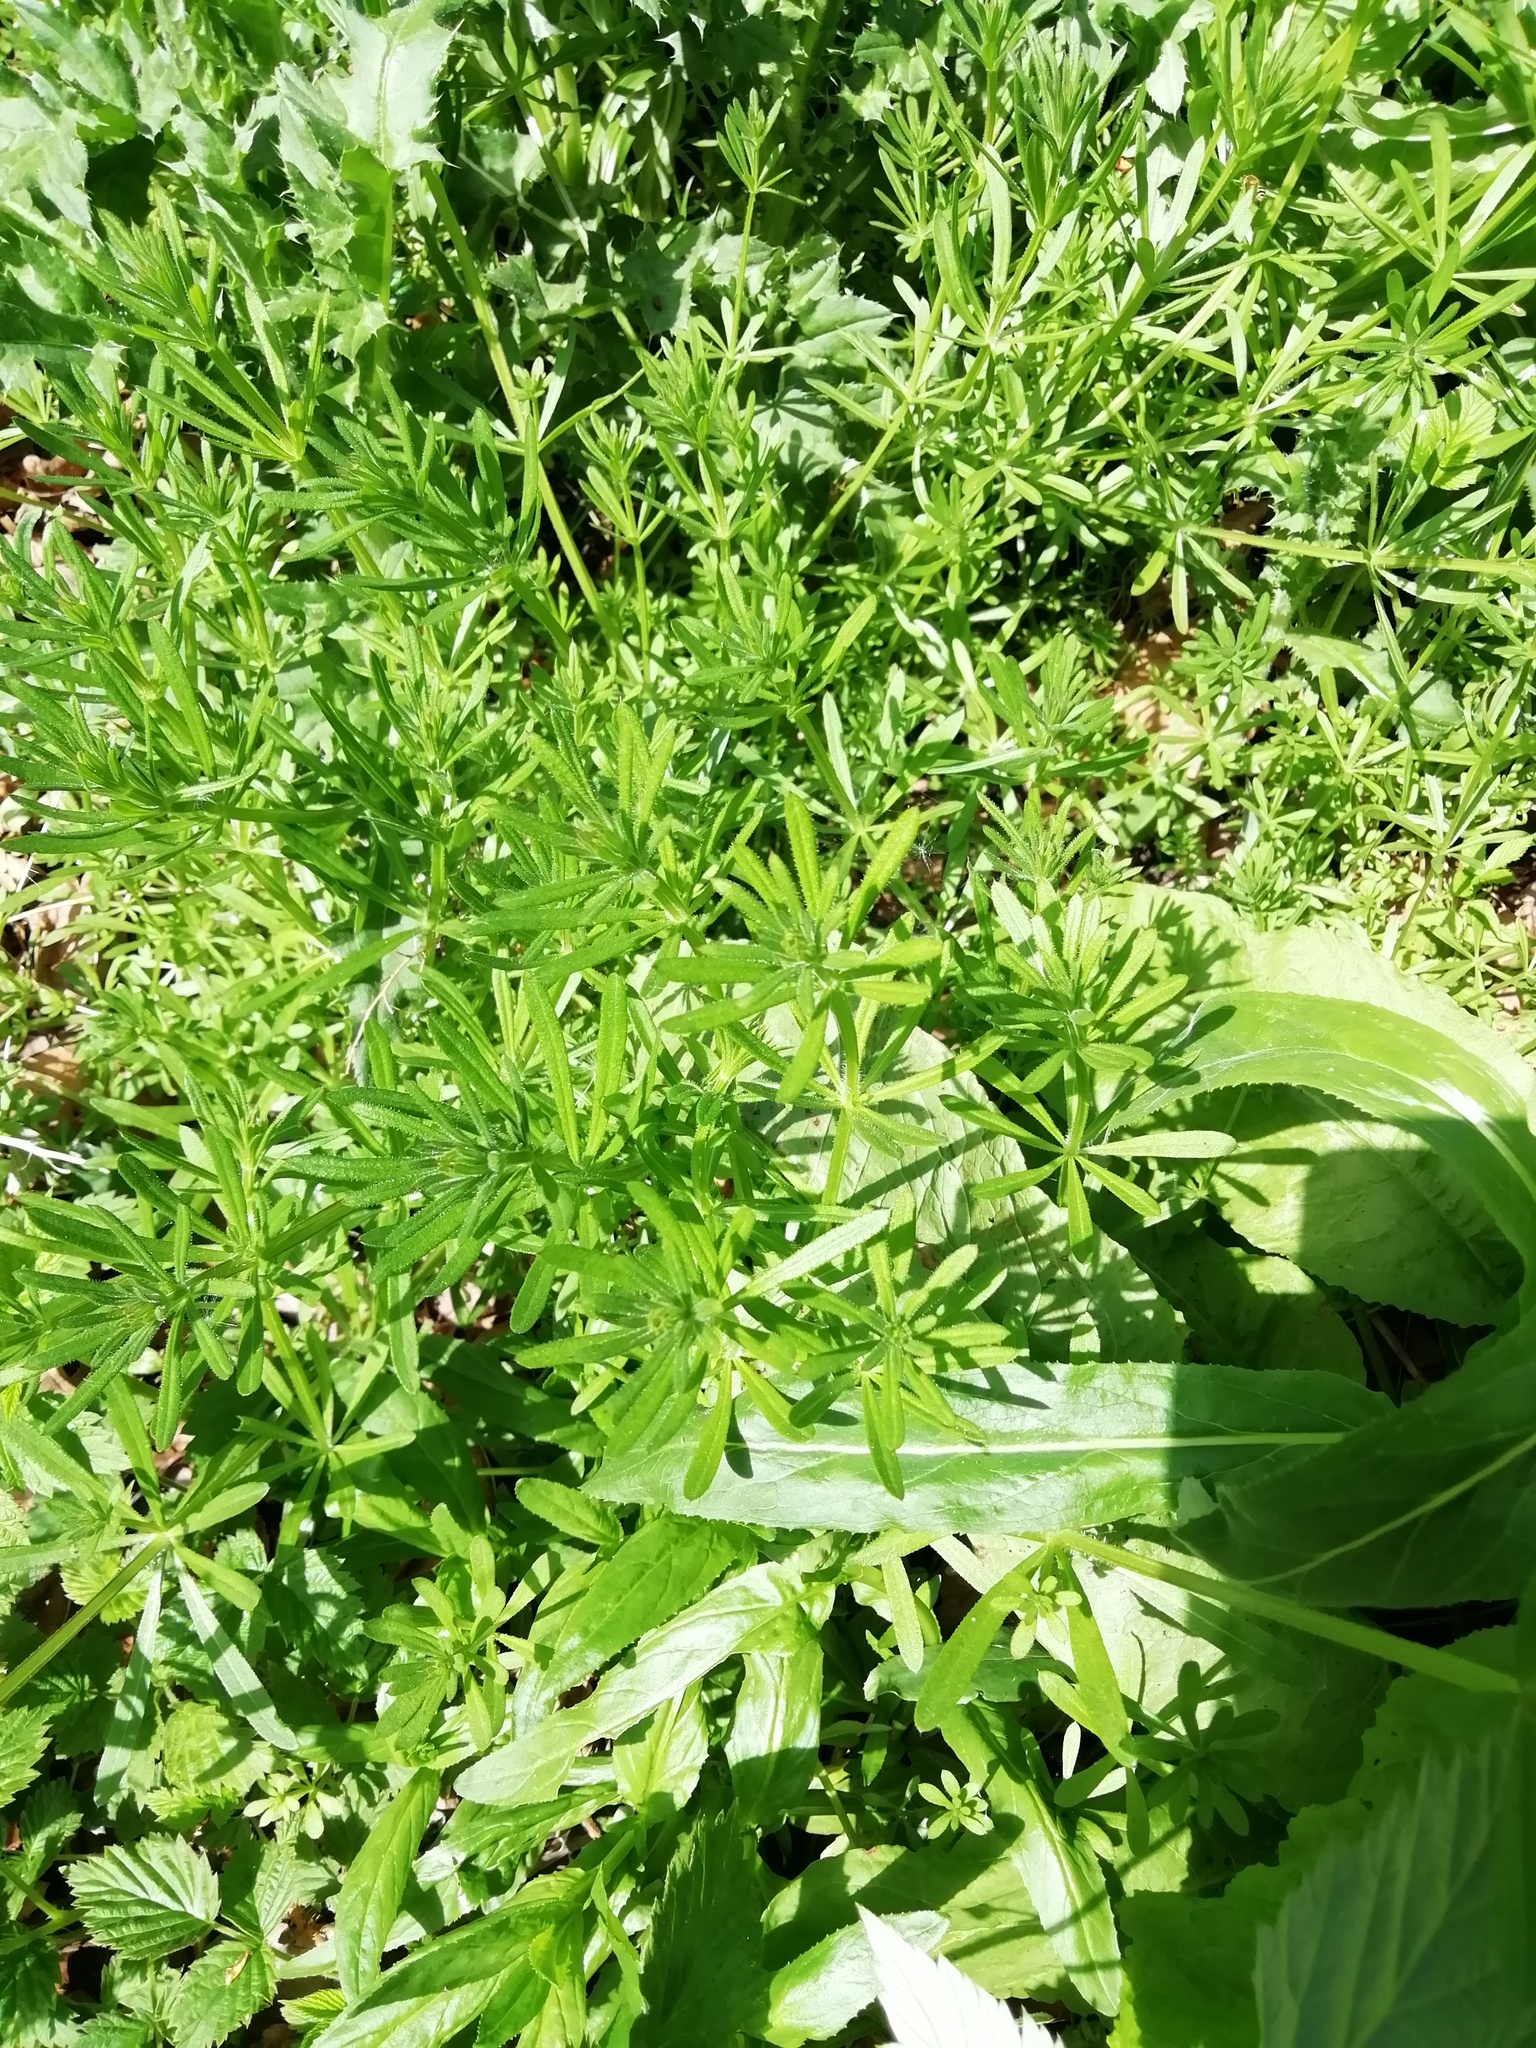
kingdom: Plantae
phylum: Tracheophyta
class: Magnoliopsida
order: Gentianales
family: Rubiaceae
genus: Galium
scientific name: Galium aparine
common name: Cleavers
